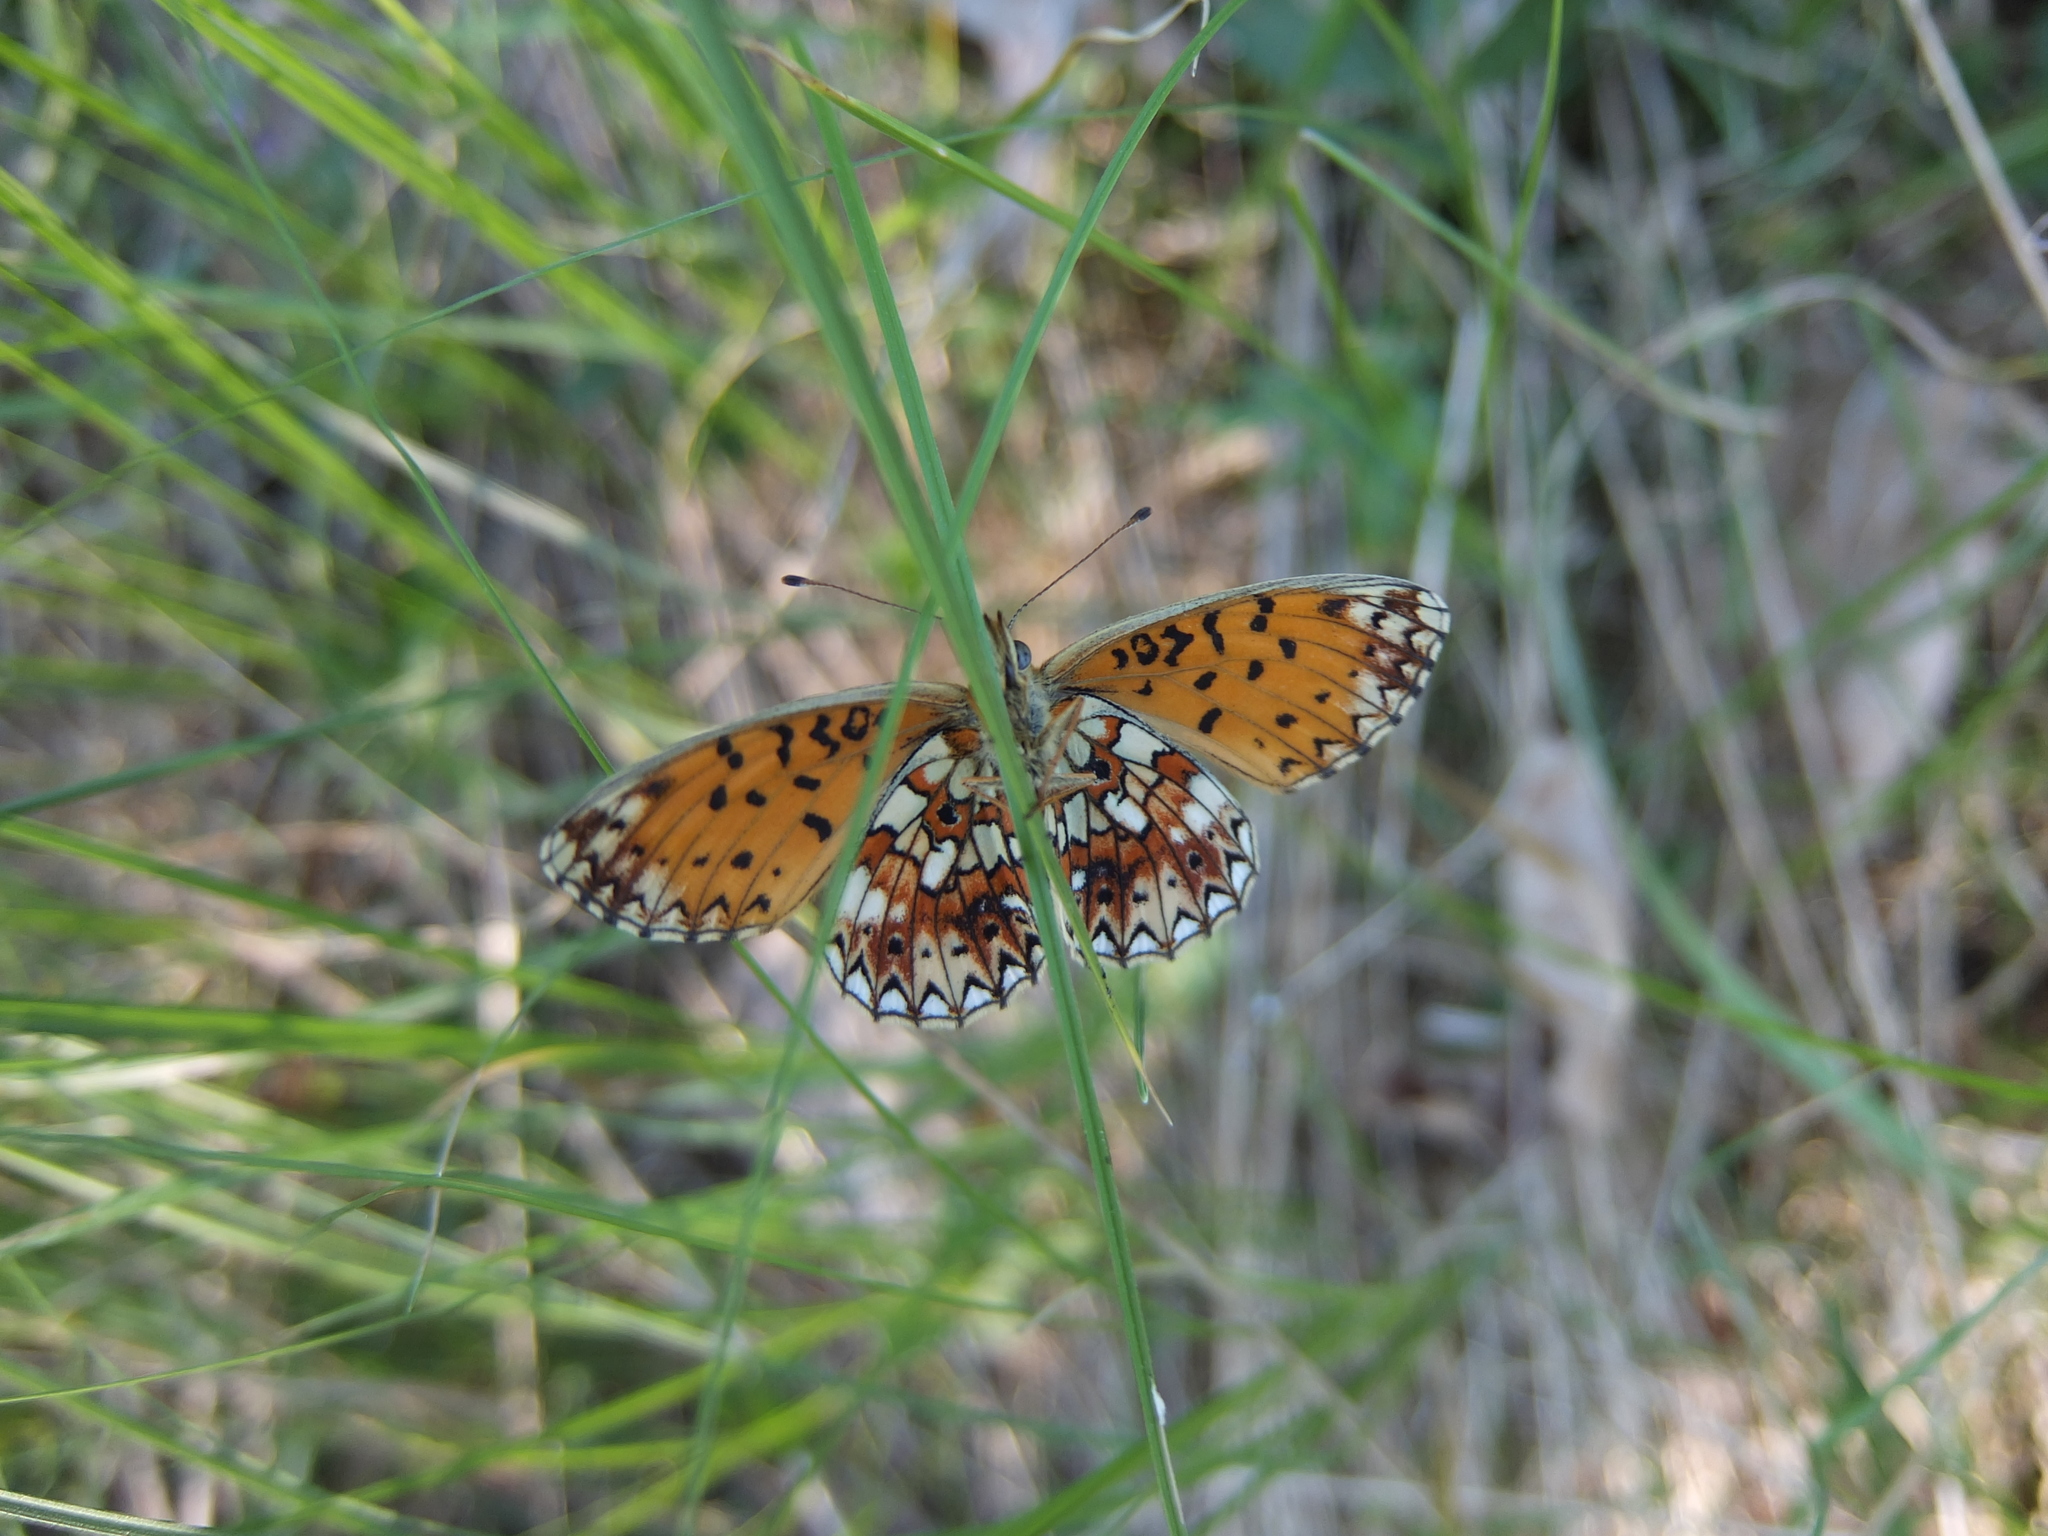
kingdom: Animalia
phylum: Arthropoda
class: Insecta
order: Lepidoptera
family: Nymphalidae
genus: Boloria
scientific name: Boloria selene
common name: Small pearl-bordered fritillary
